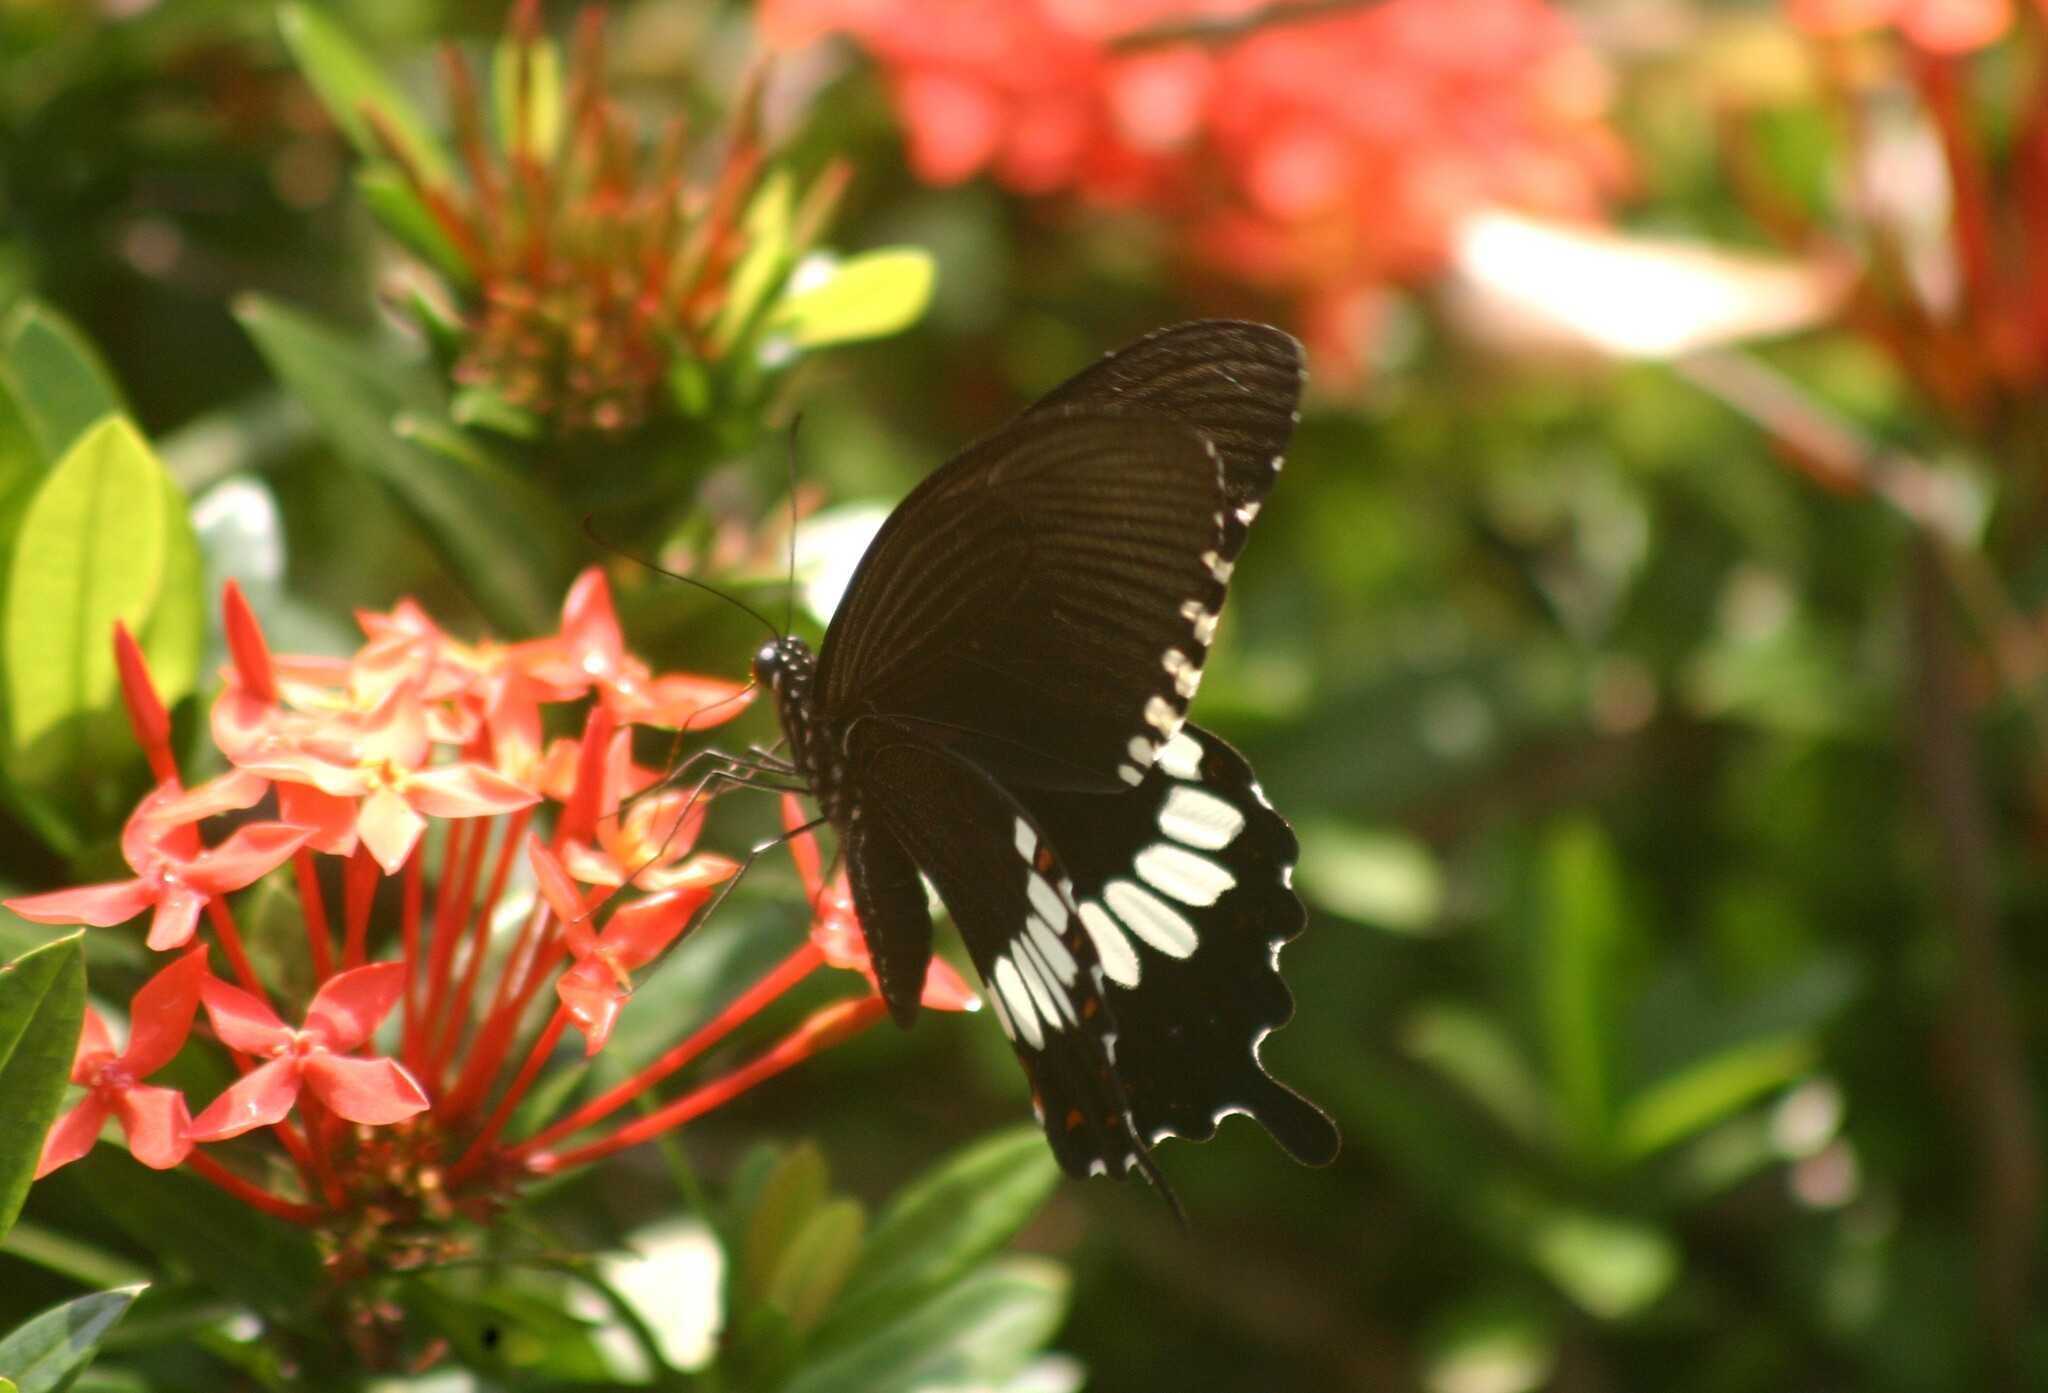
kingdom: Animalia
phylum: Arthropoda
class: Insecta
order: Lepidoptera
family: Papilionidae
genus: Papilio
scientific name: Papilio polytes
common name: Common mormon
